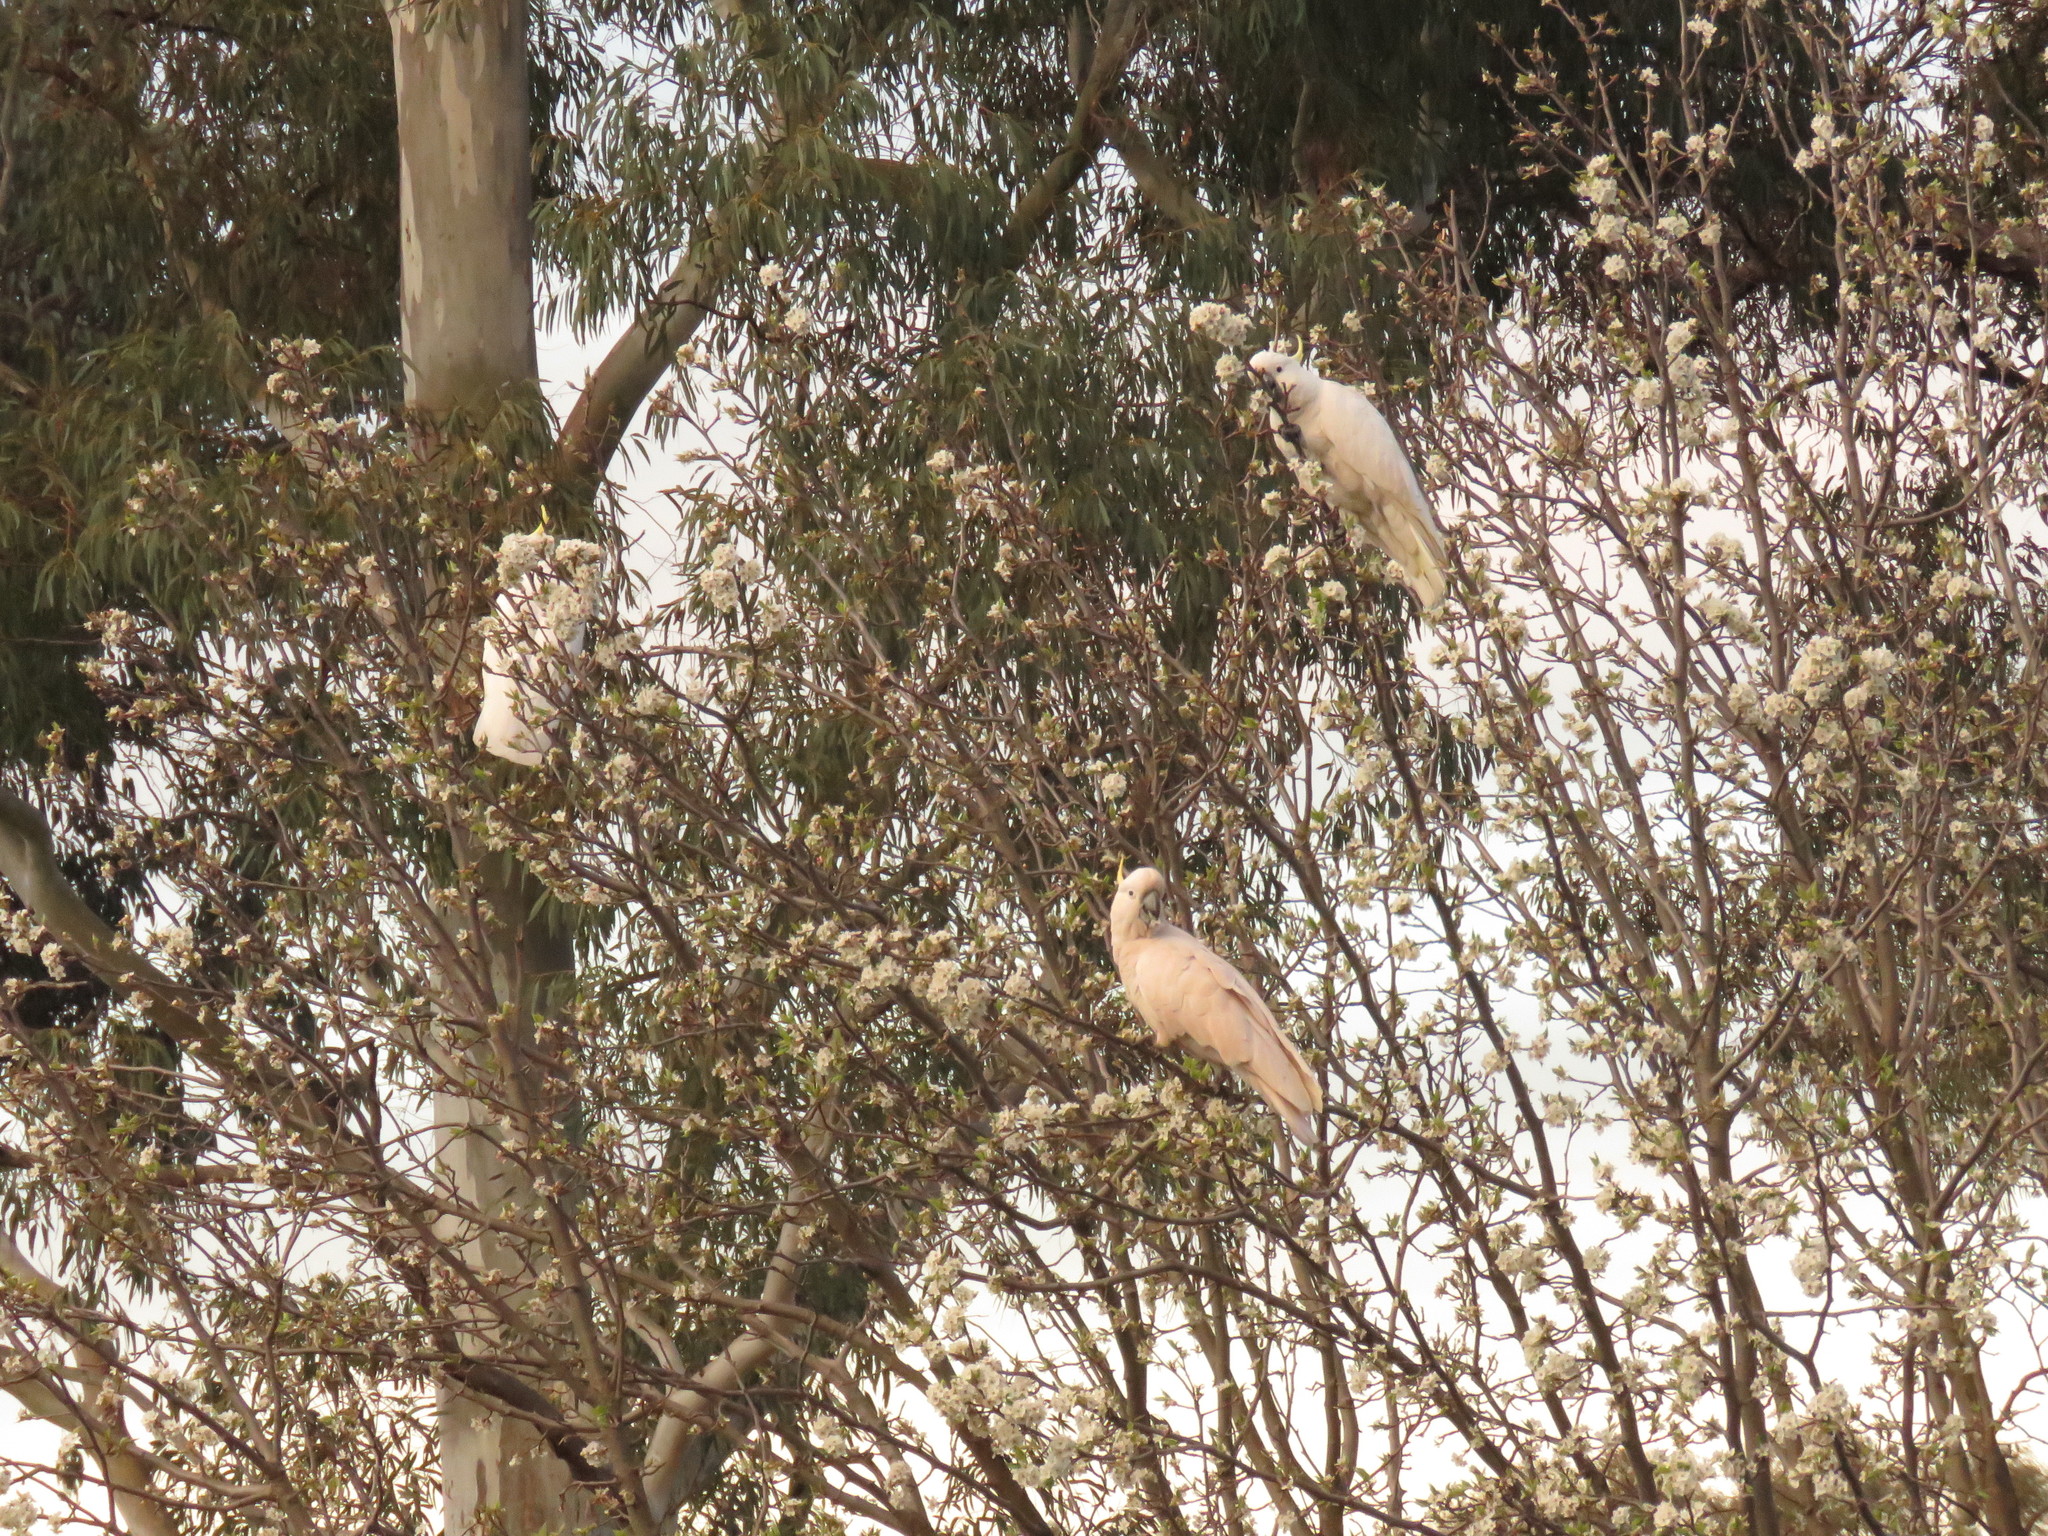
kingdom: Animalia
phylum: Chordata
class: Aves
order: Psittaciformes
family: Psittacidae
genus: Cacatua
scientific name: Cacatua galerita
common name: Sulphur-crested cockatoo
